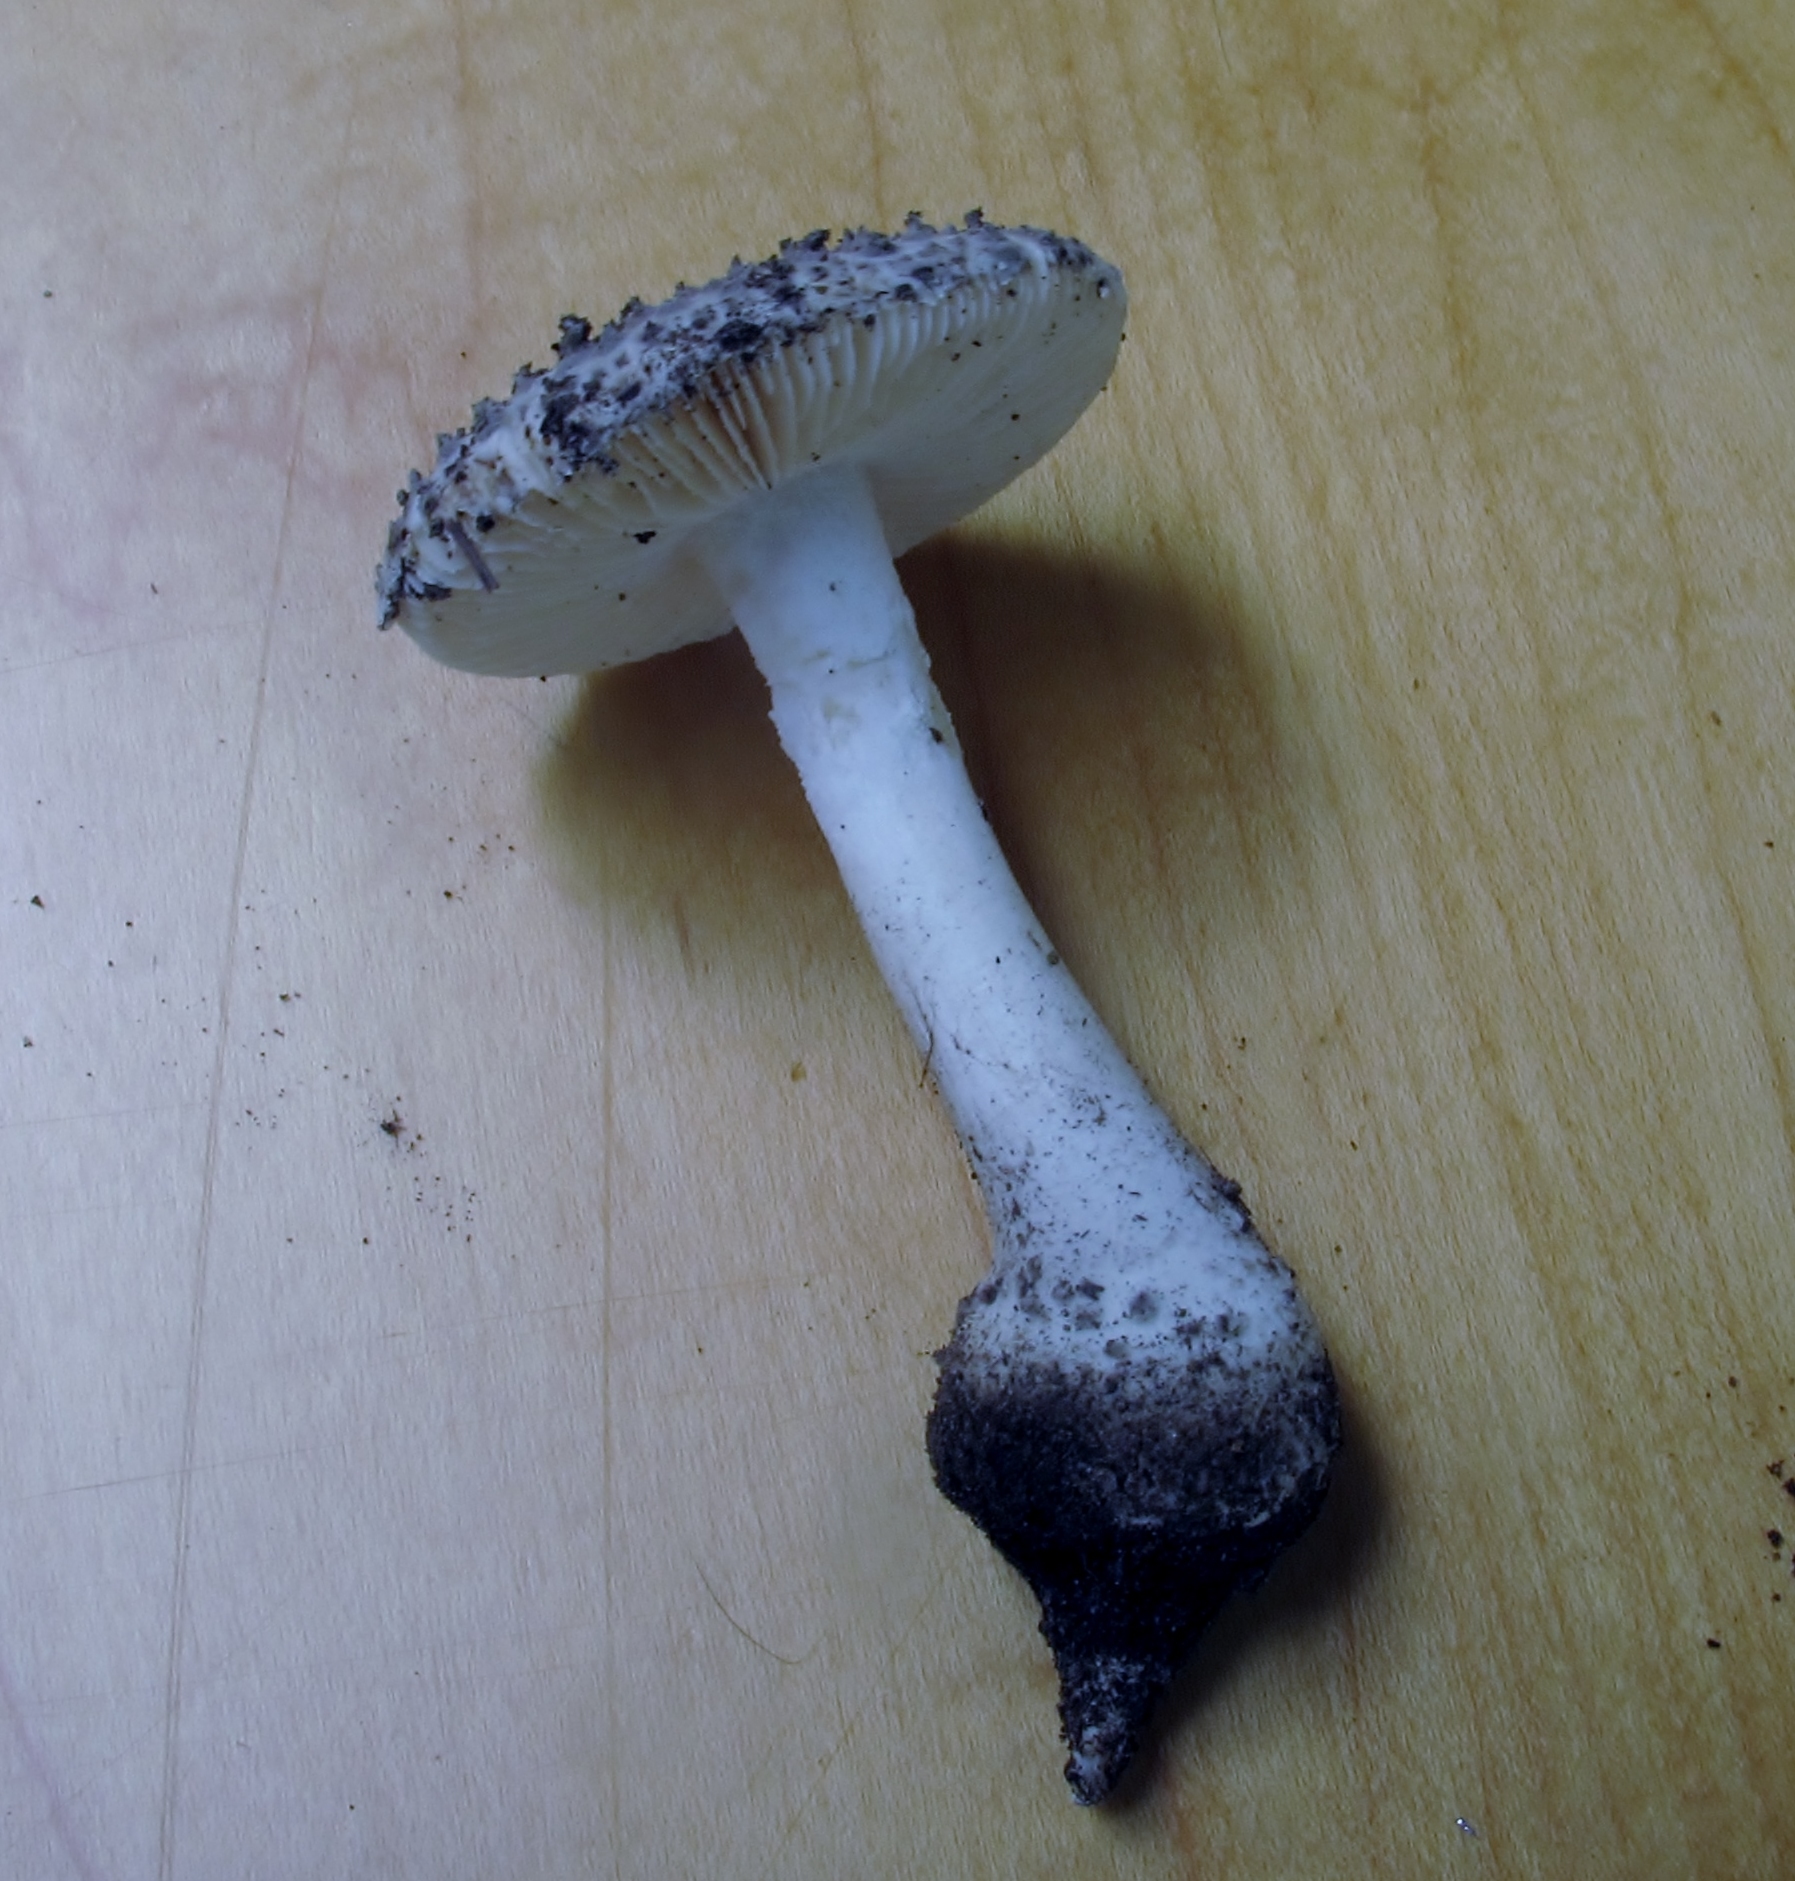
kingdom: Fungi
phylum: Basidiomycota
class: Agaricomycetes
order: Agaricales
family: Amanitaceae
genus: Amanita
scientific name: Amanita onusta
